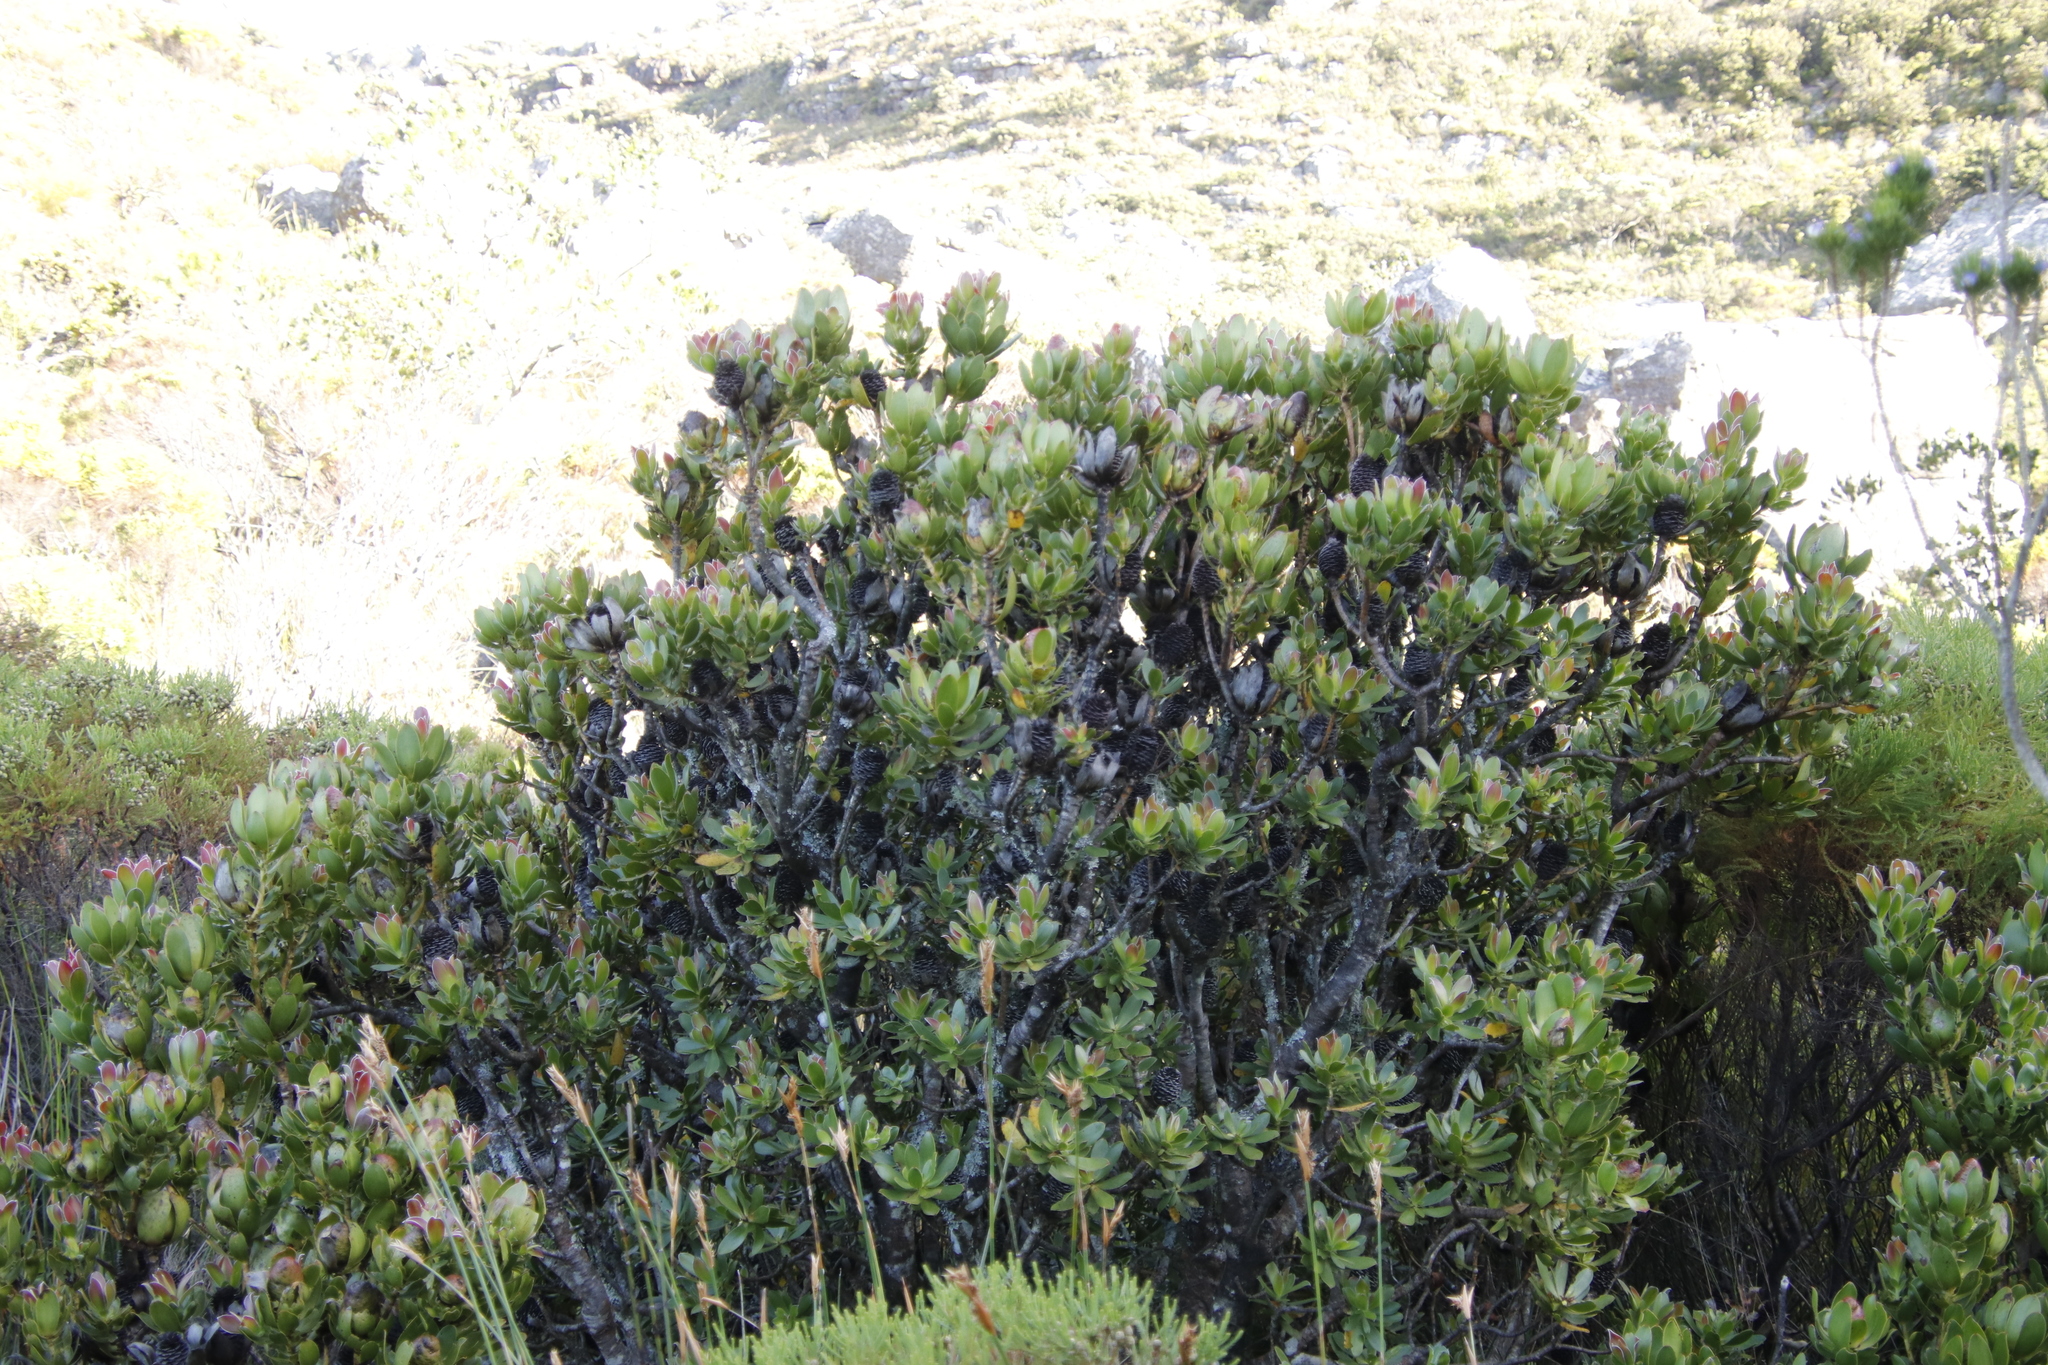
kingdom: Plantae
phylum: Tracheophyta
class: Magnoliopsida
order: Proteales
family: Proteaceae
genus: Leucadendron
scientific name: Leucadendron strobilinum
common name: Mountain rose
